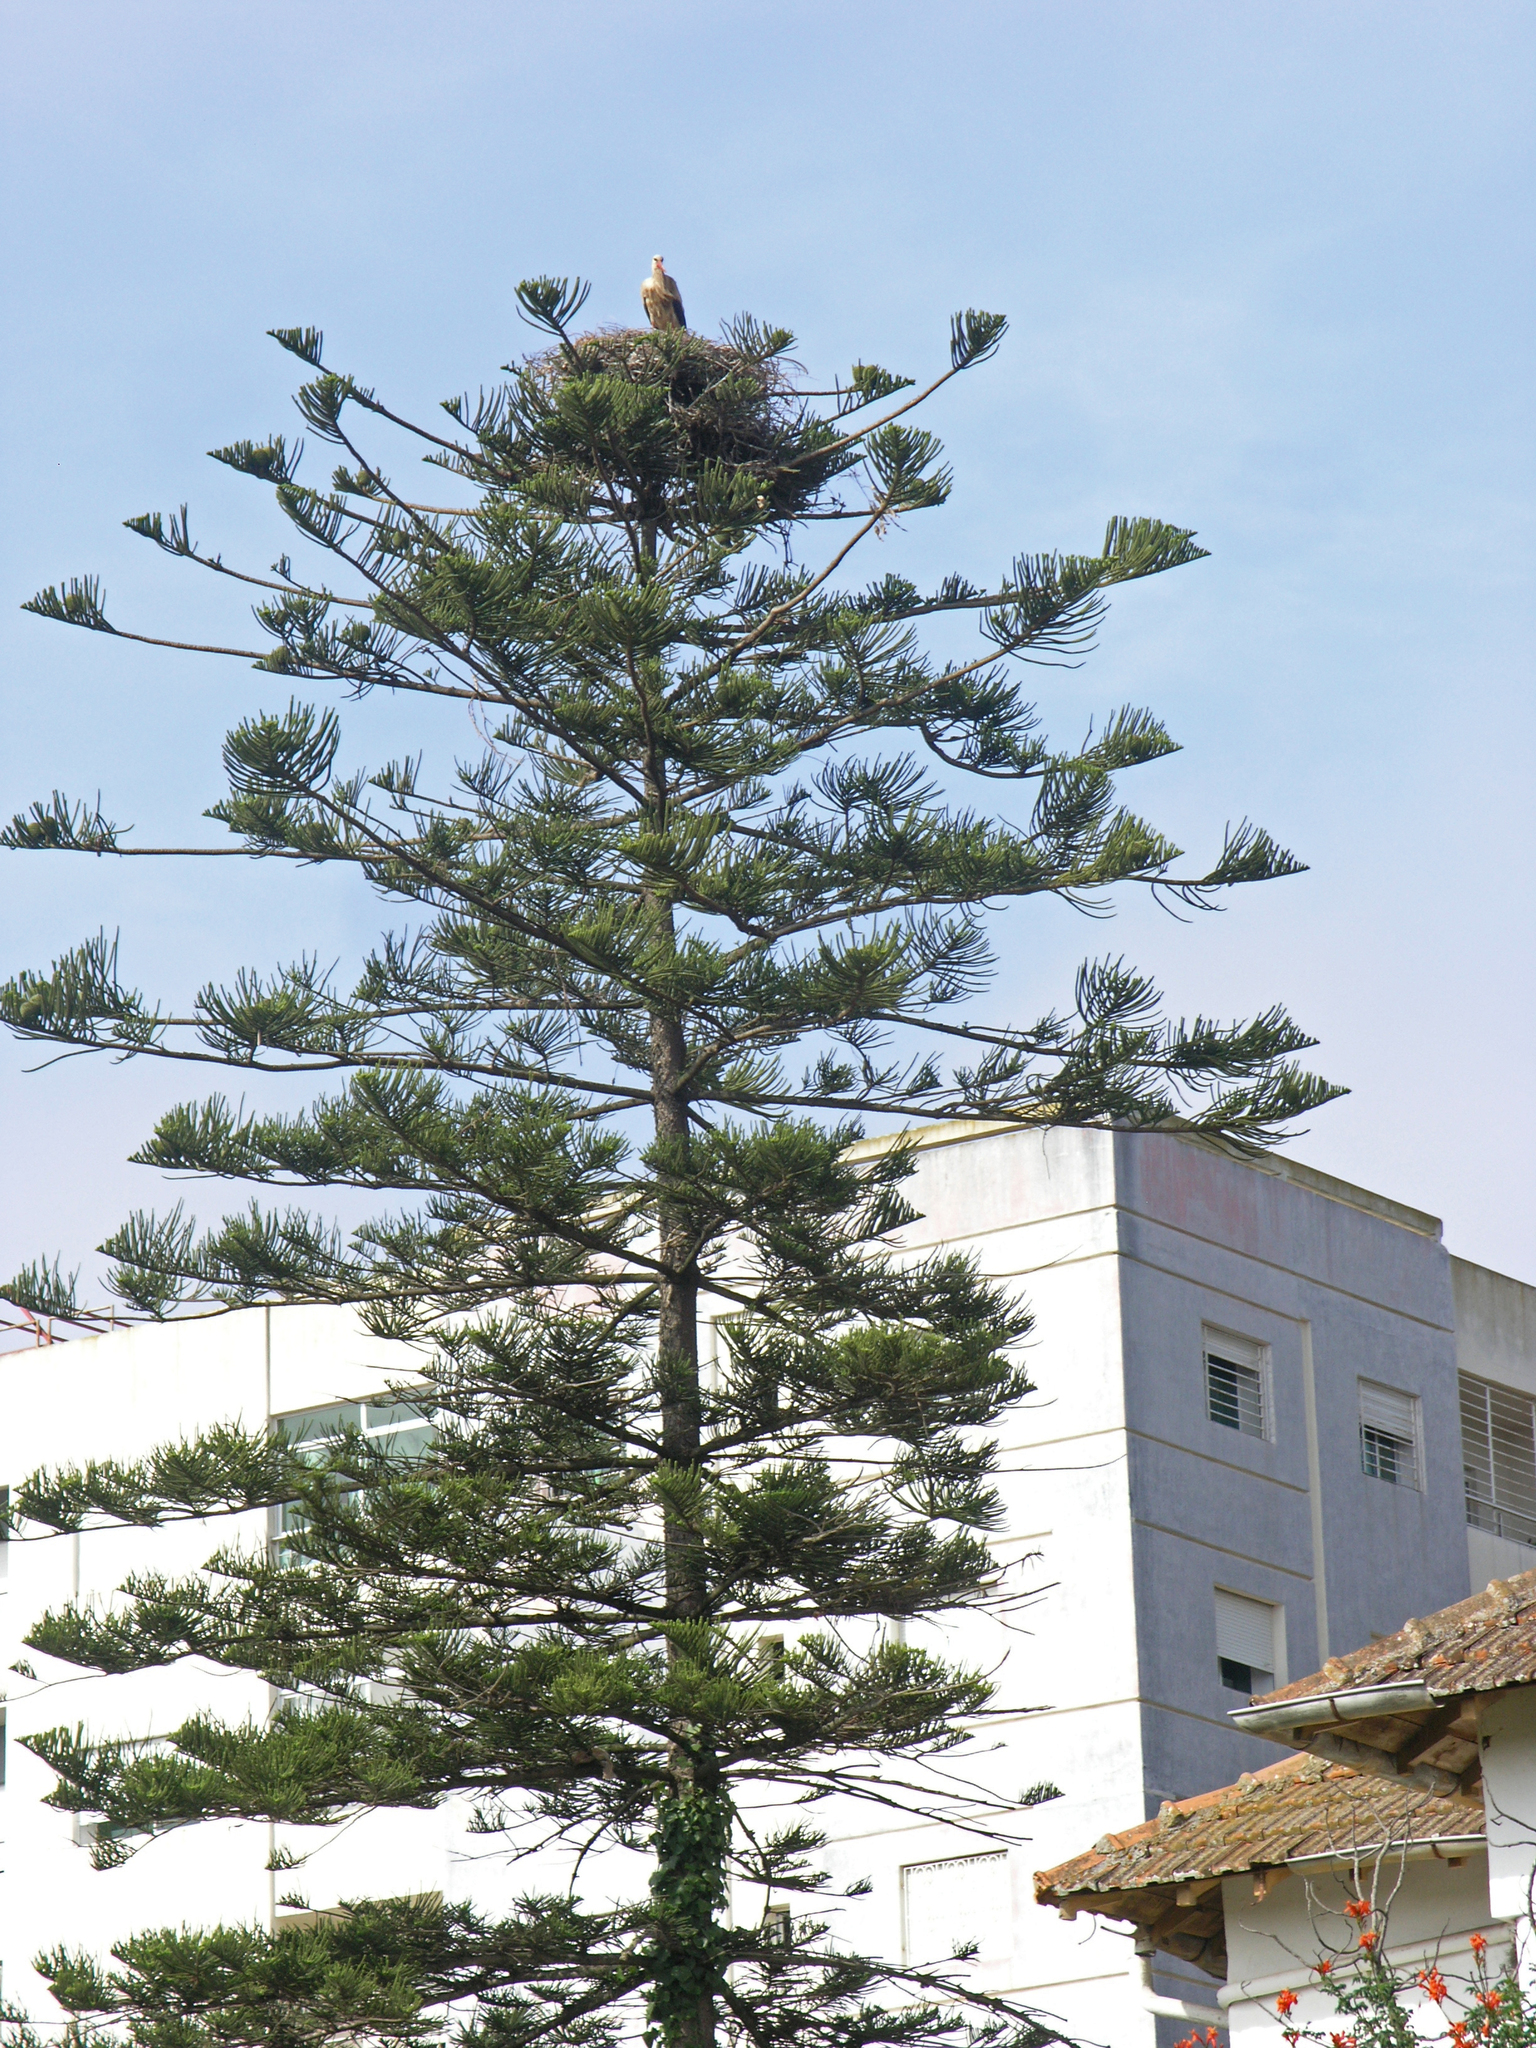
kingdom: Animalia
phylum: Chordata
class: Aves
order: Ciconiiformes
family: Ciconiidae
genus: Ciconia
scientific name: Ciconia ciconia
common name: White stork
